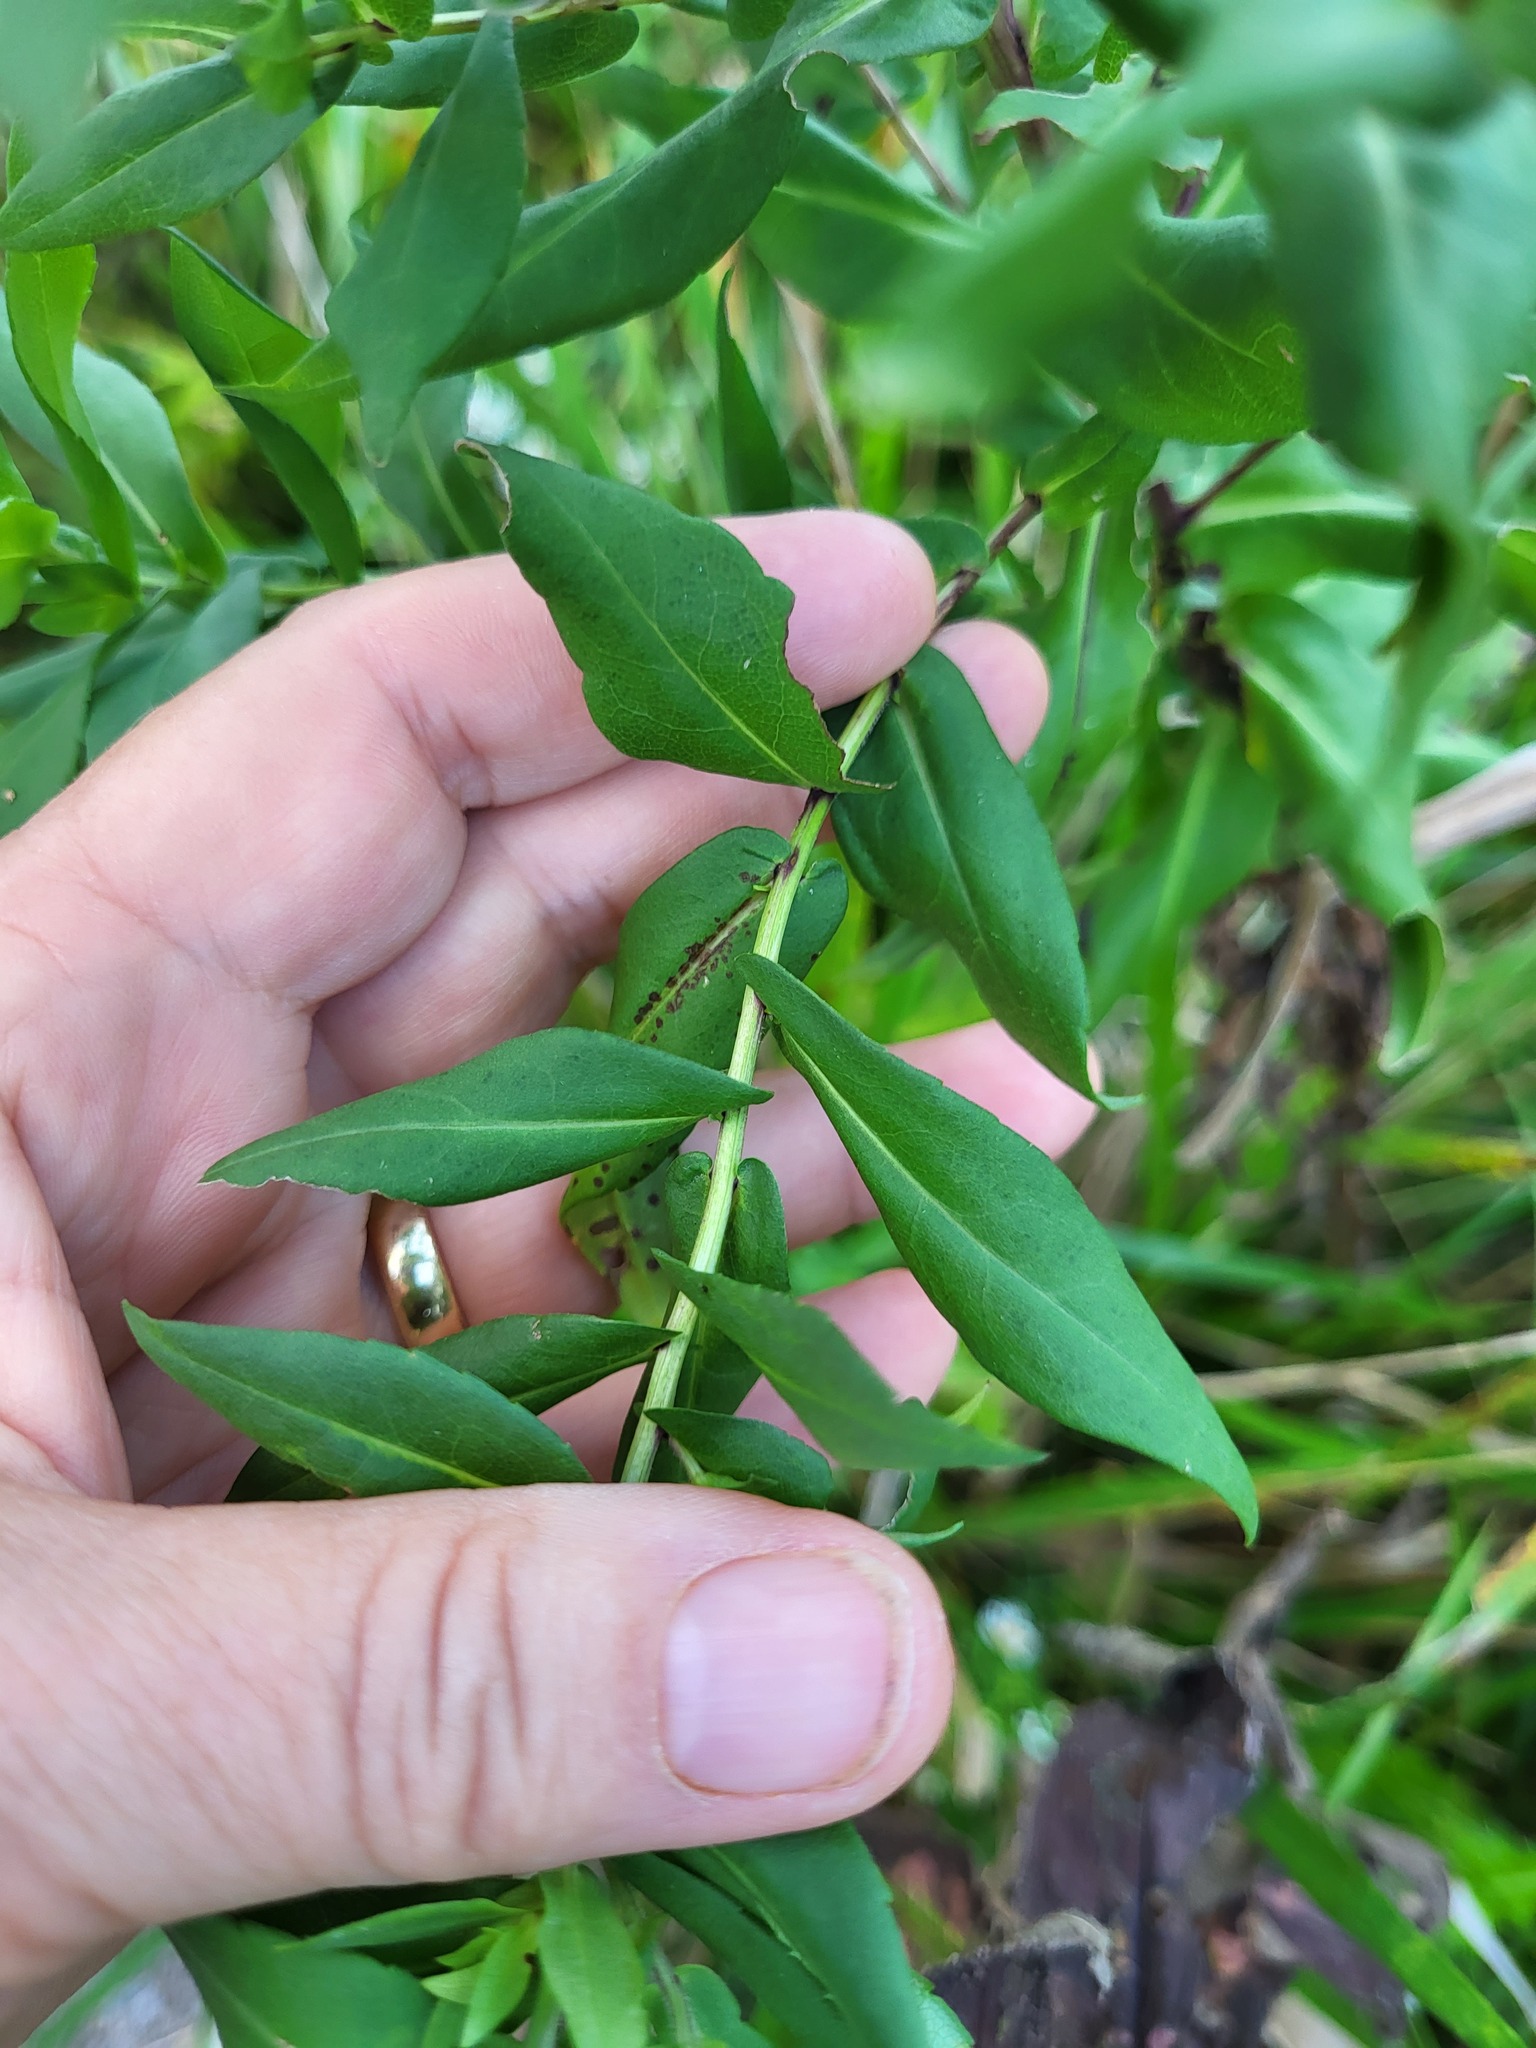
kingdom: Plantae
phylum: Tracheophyta
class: Magnoliopsida
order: Asterales
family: Asteraceae
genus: Symphyotrichum
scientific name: Symphyotrichum firmum
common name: Shining aster
